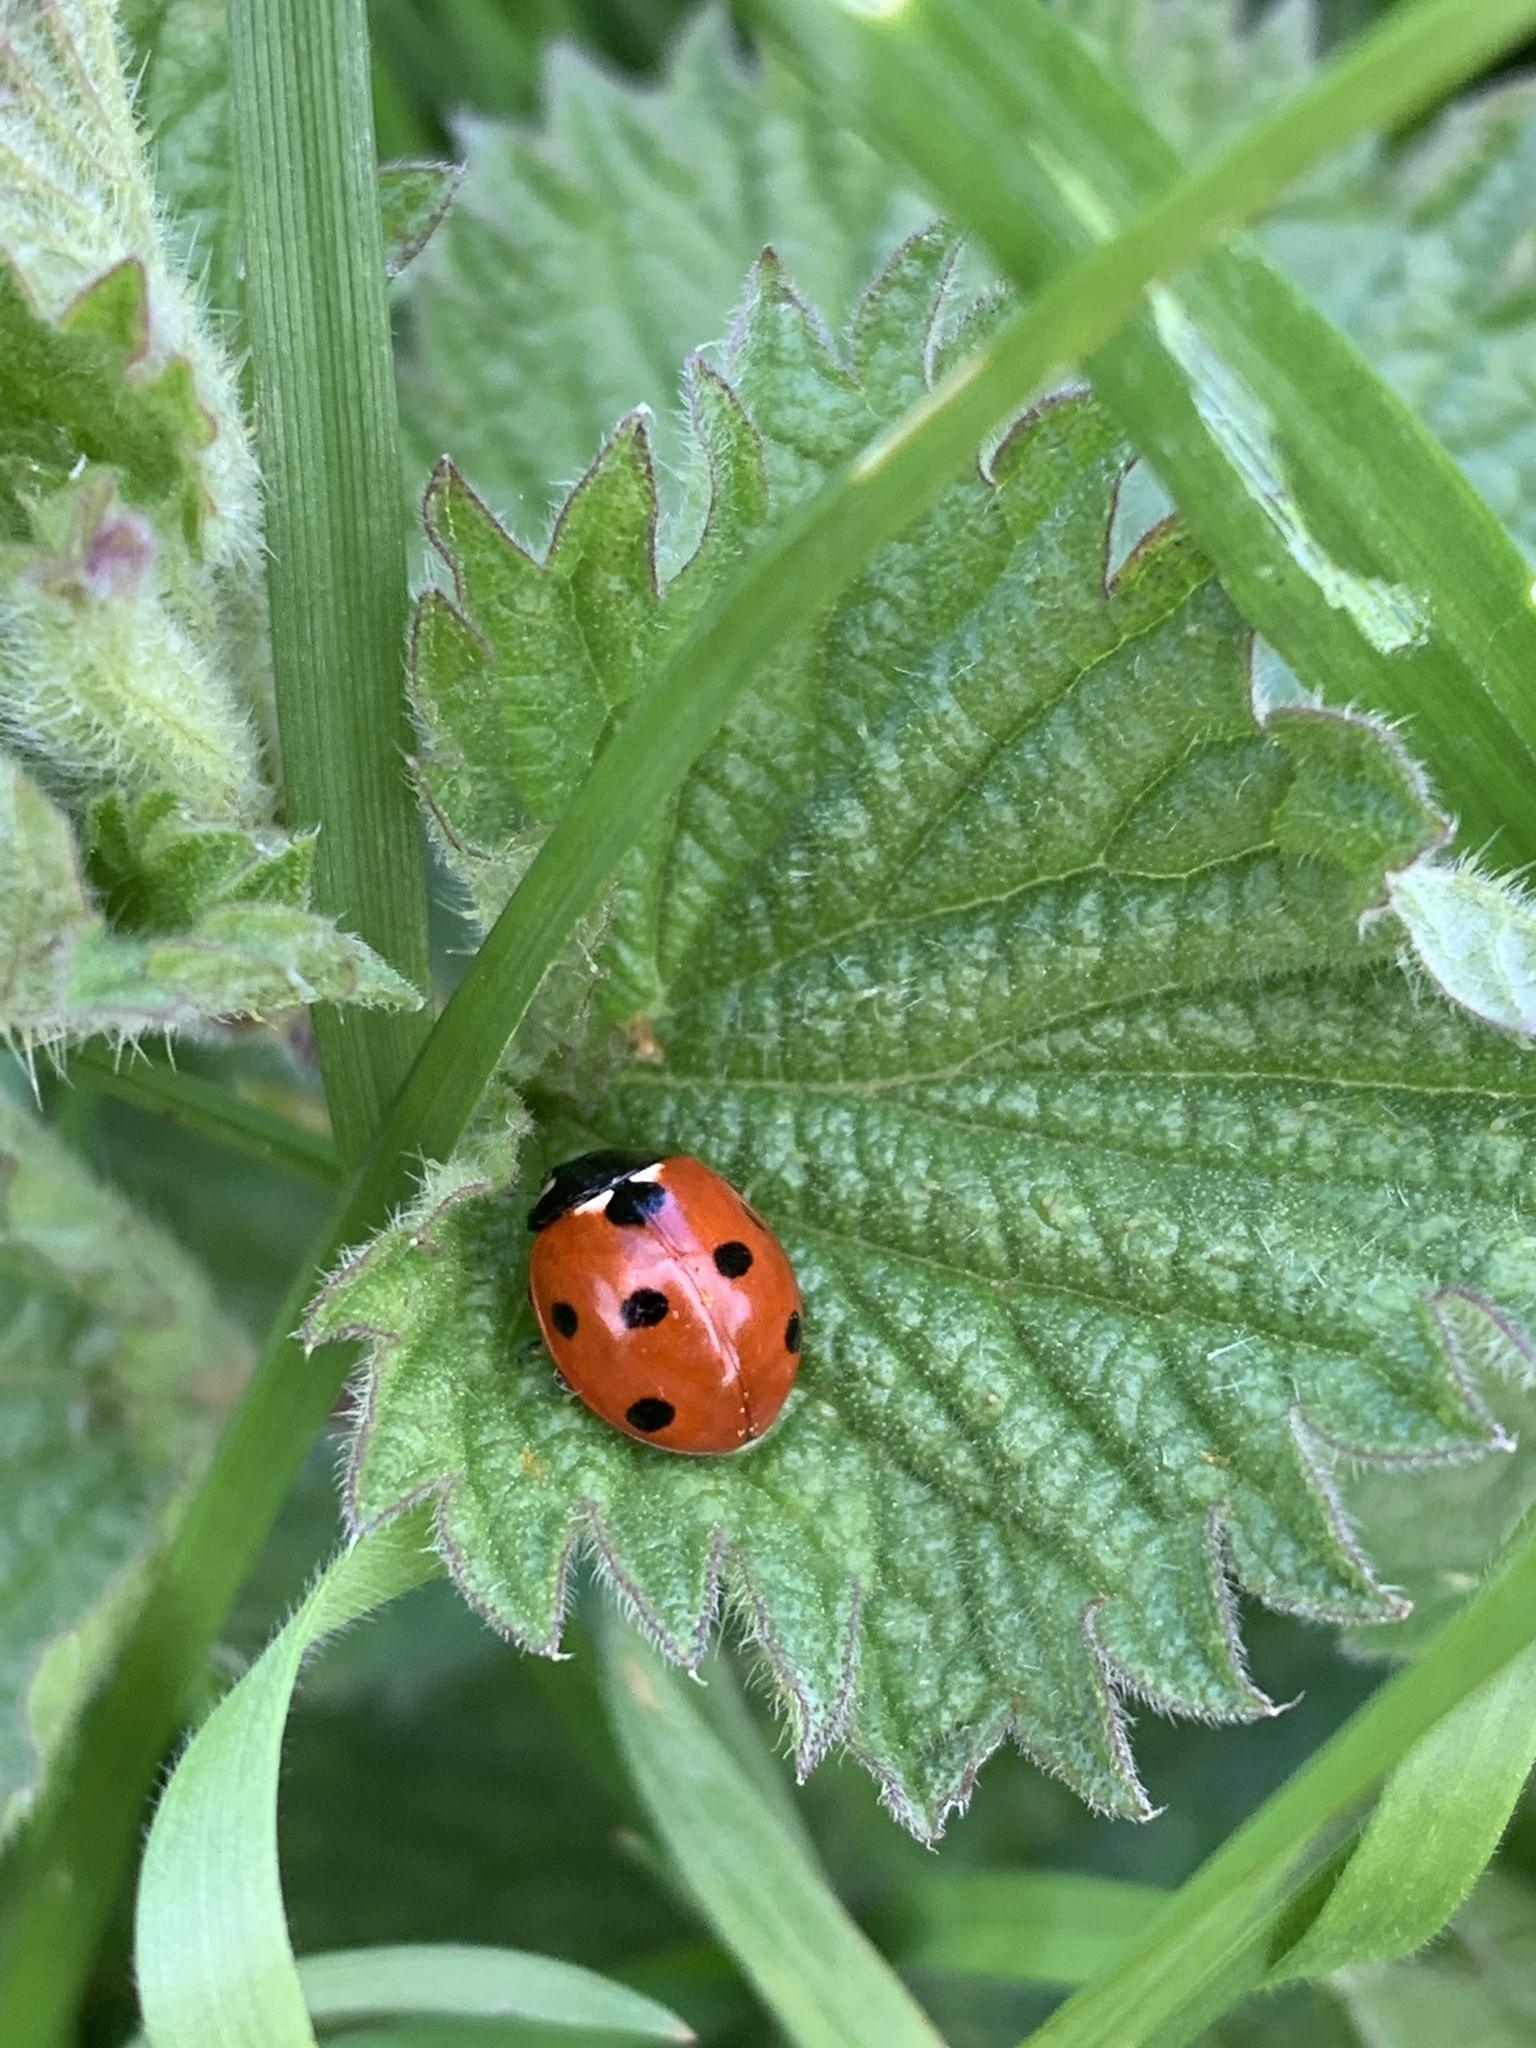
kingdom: Animalia
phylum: Arthropoda
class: Insecta
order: Coleoptera
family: Coccinellidae
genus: Coccinella
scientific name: Coccinella septempunctata
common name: Sevenspotted lady beetle
